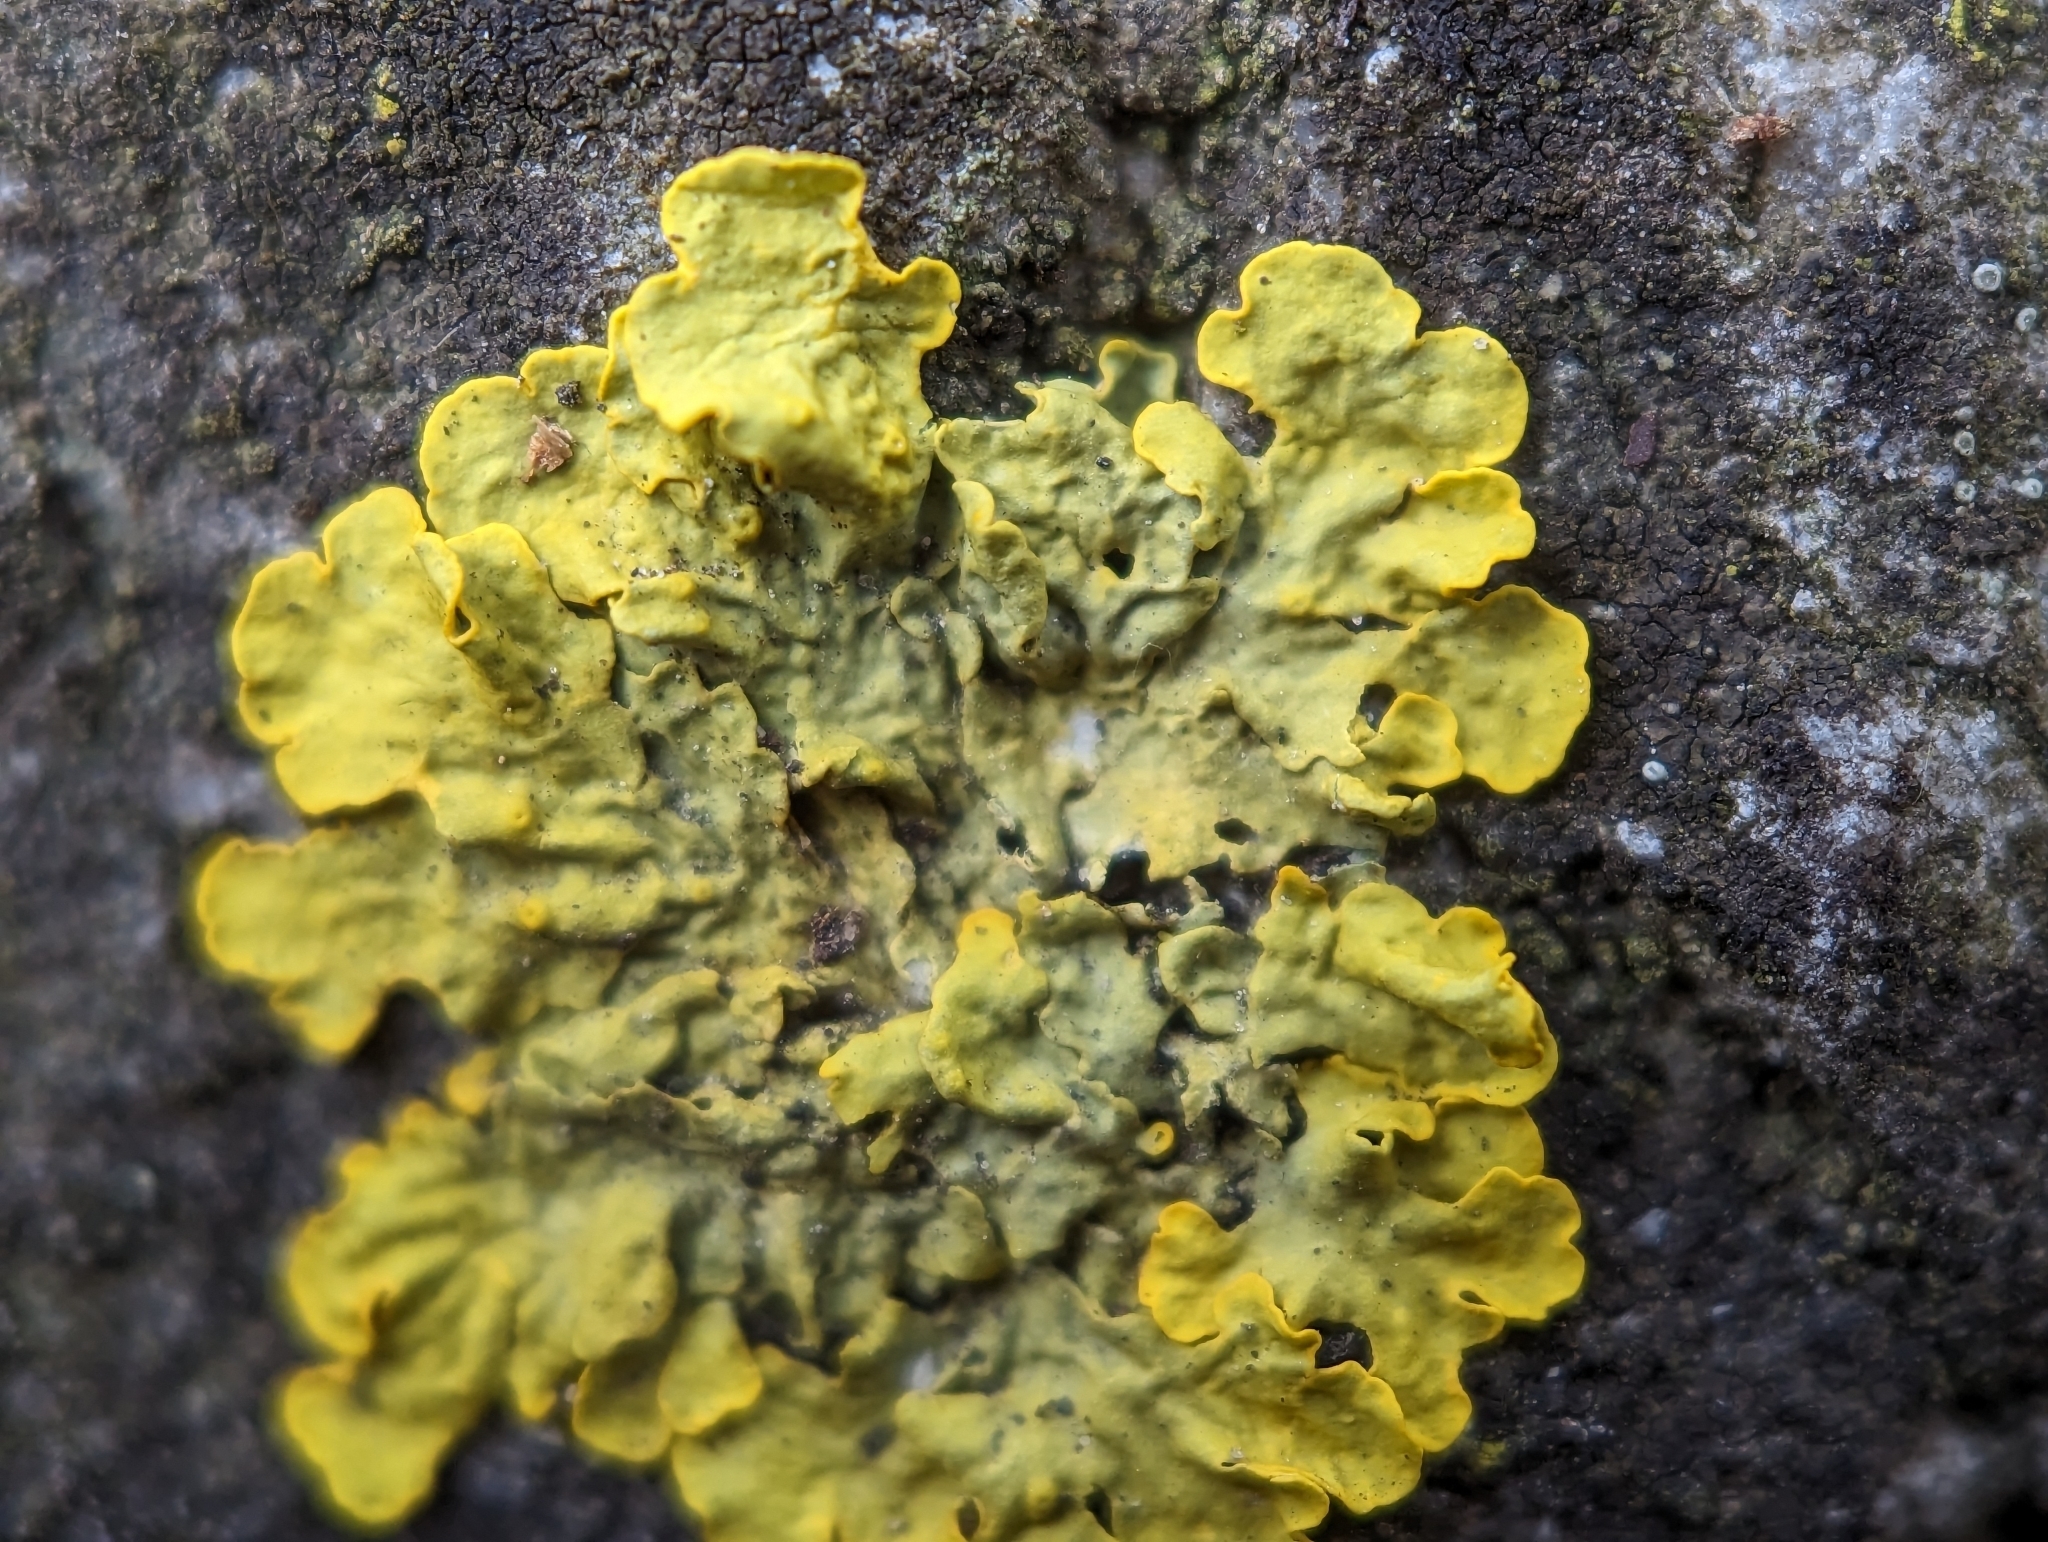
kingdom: Fungi
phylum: Ascomycota
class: Lecanoromycetes
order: Teloschistales
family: Teloschistaceae
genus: Xanthoria
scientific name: Xanthoria parietina
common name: Common orange lichen
